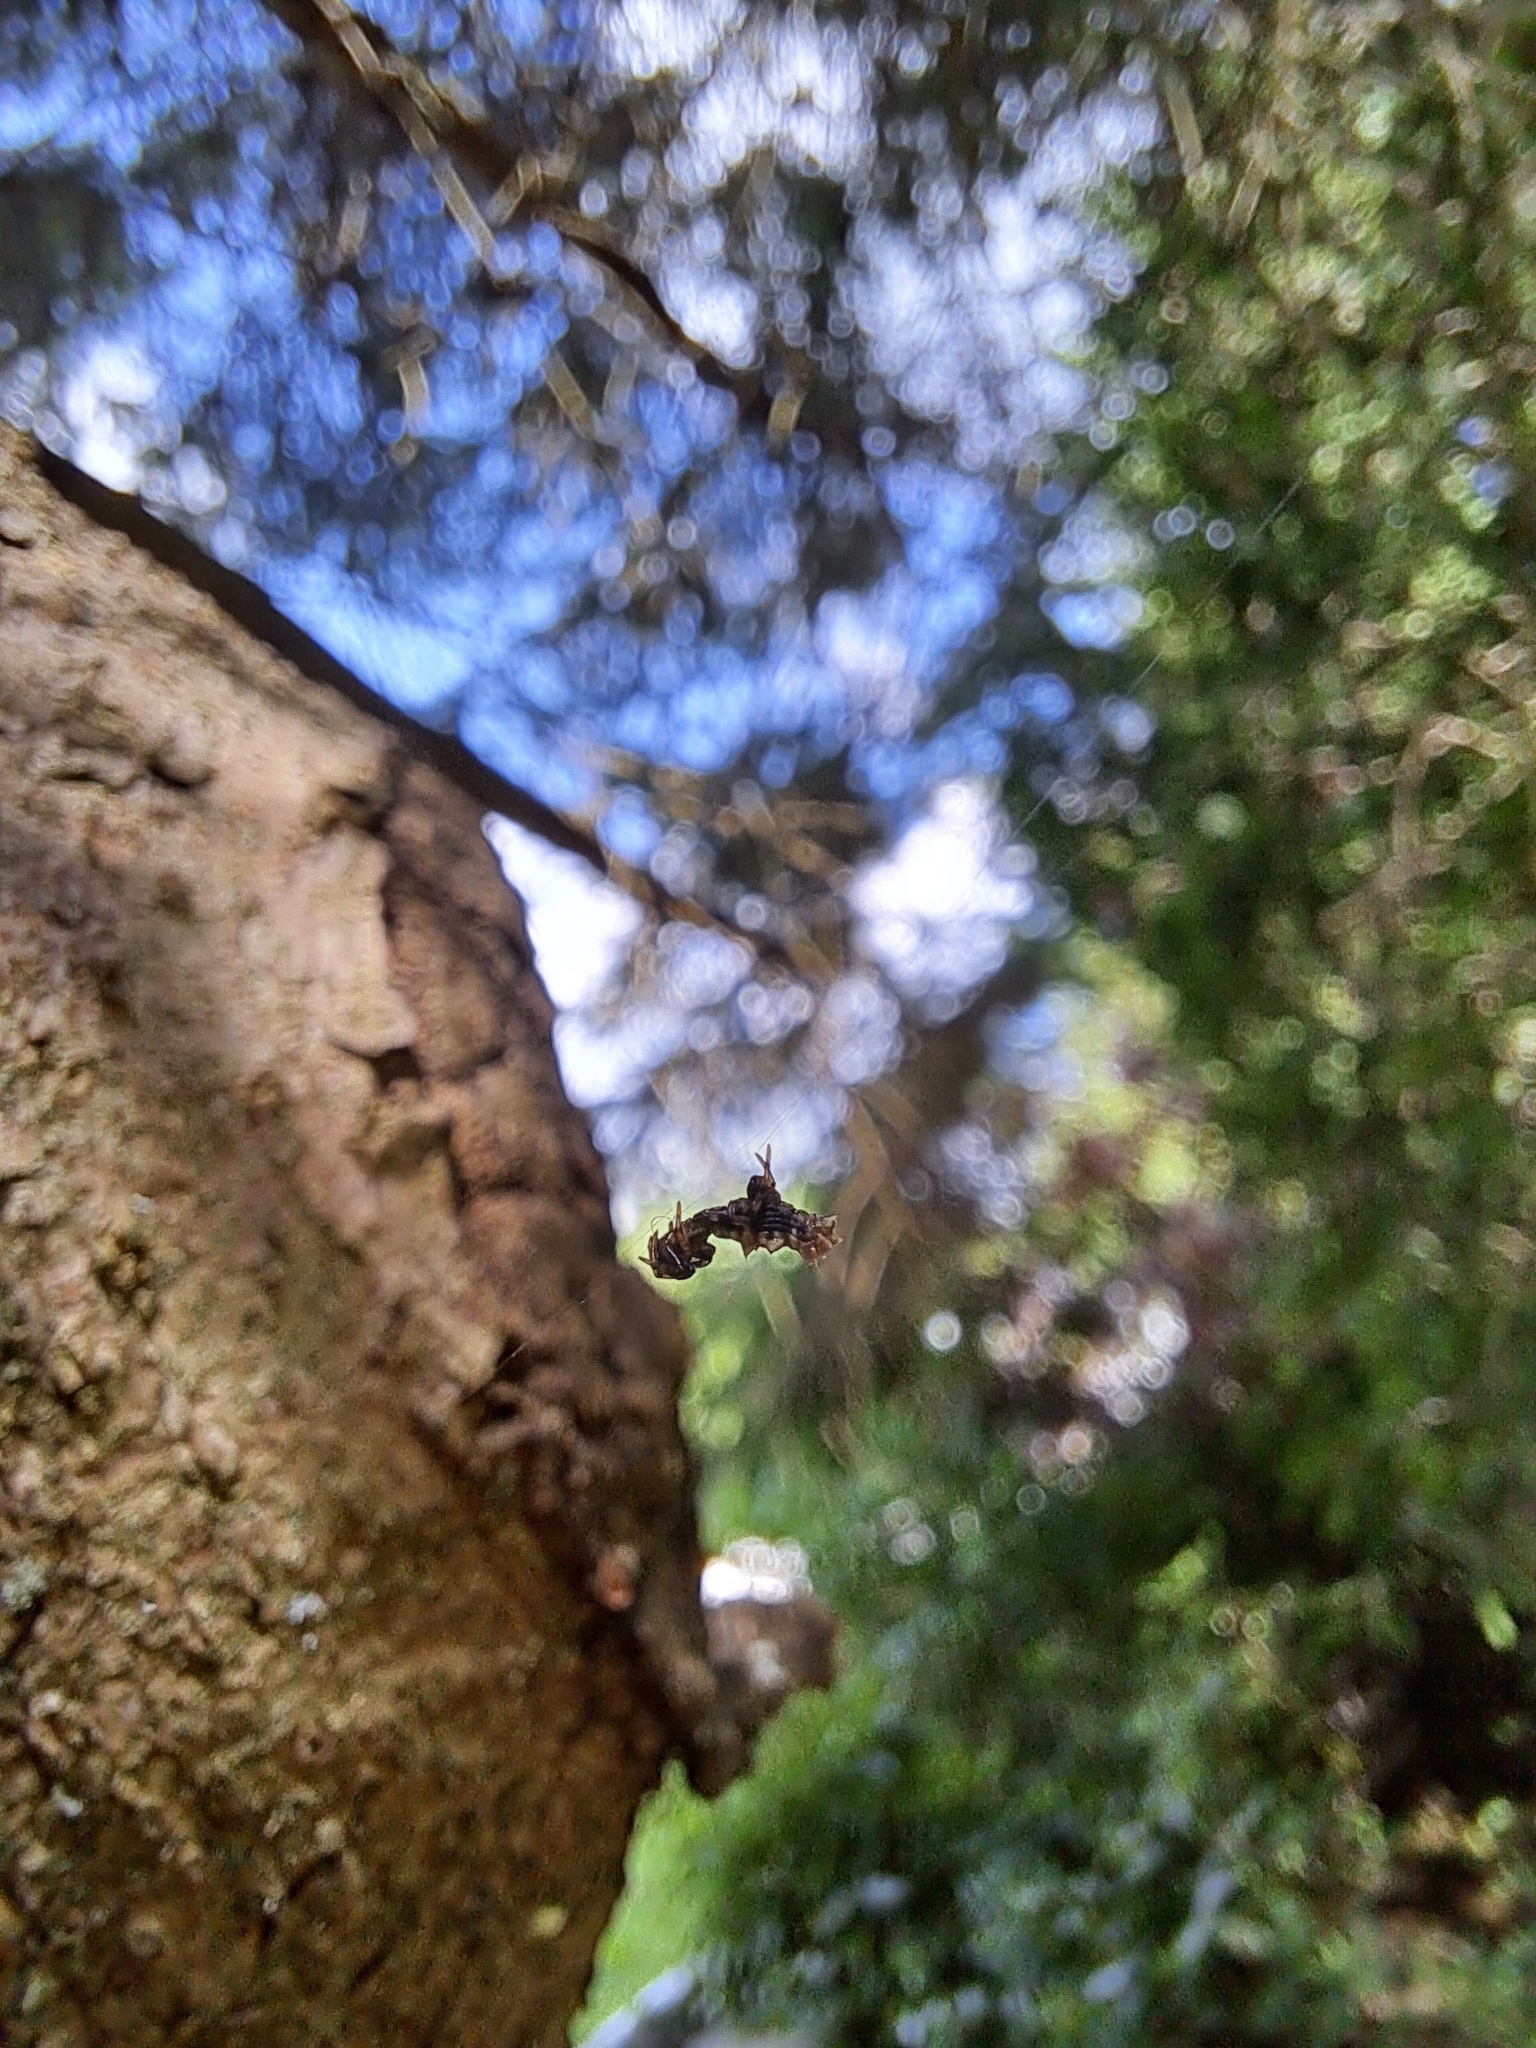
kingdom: Animalia
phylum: Arthropoda
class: Arachnida
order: Araneae
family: Araneidae
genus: Micrathena
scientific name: Micrathena gracilis
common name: Orb weavers
